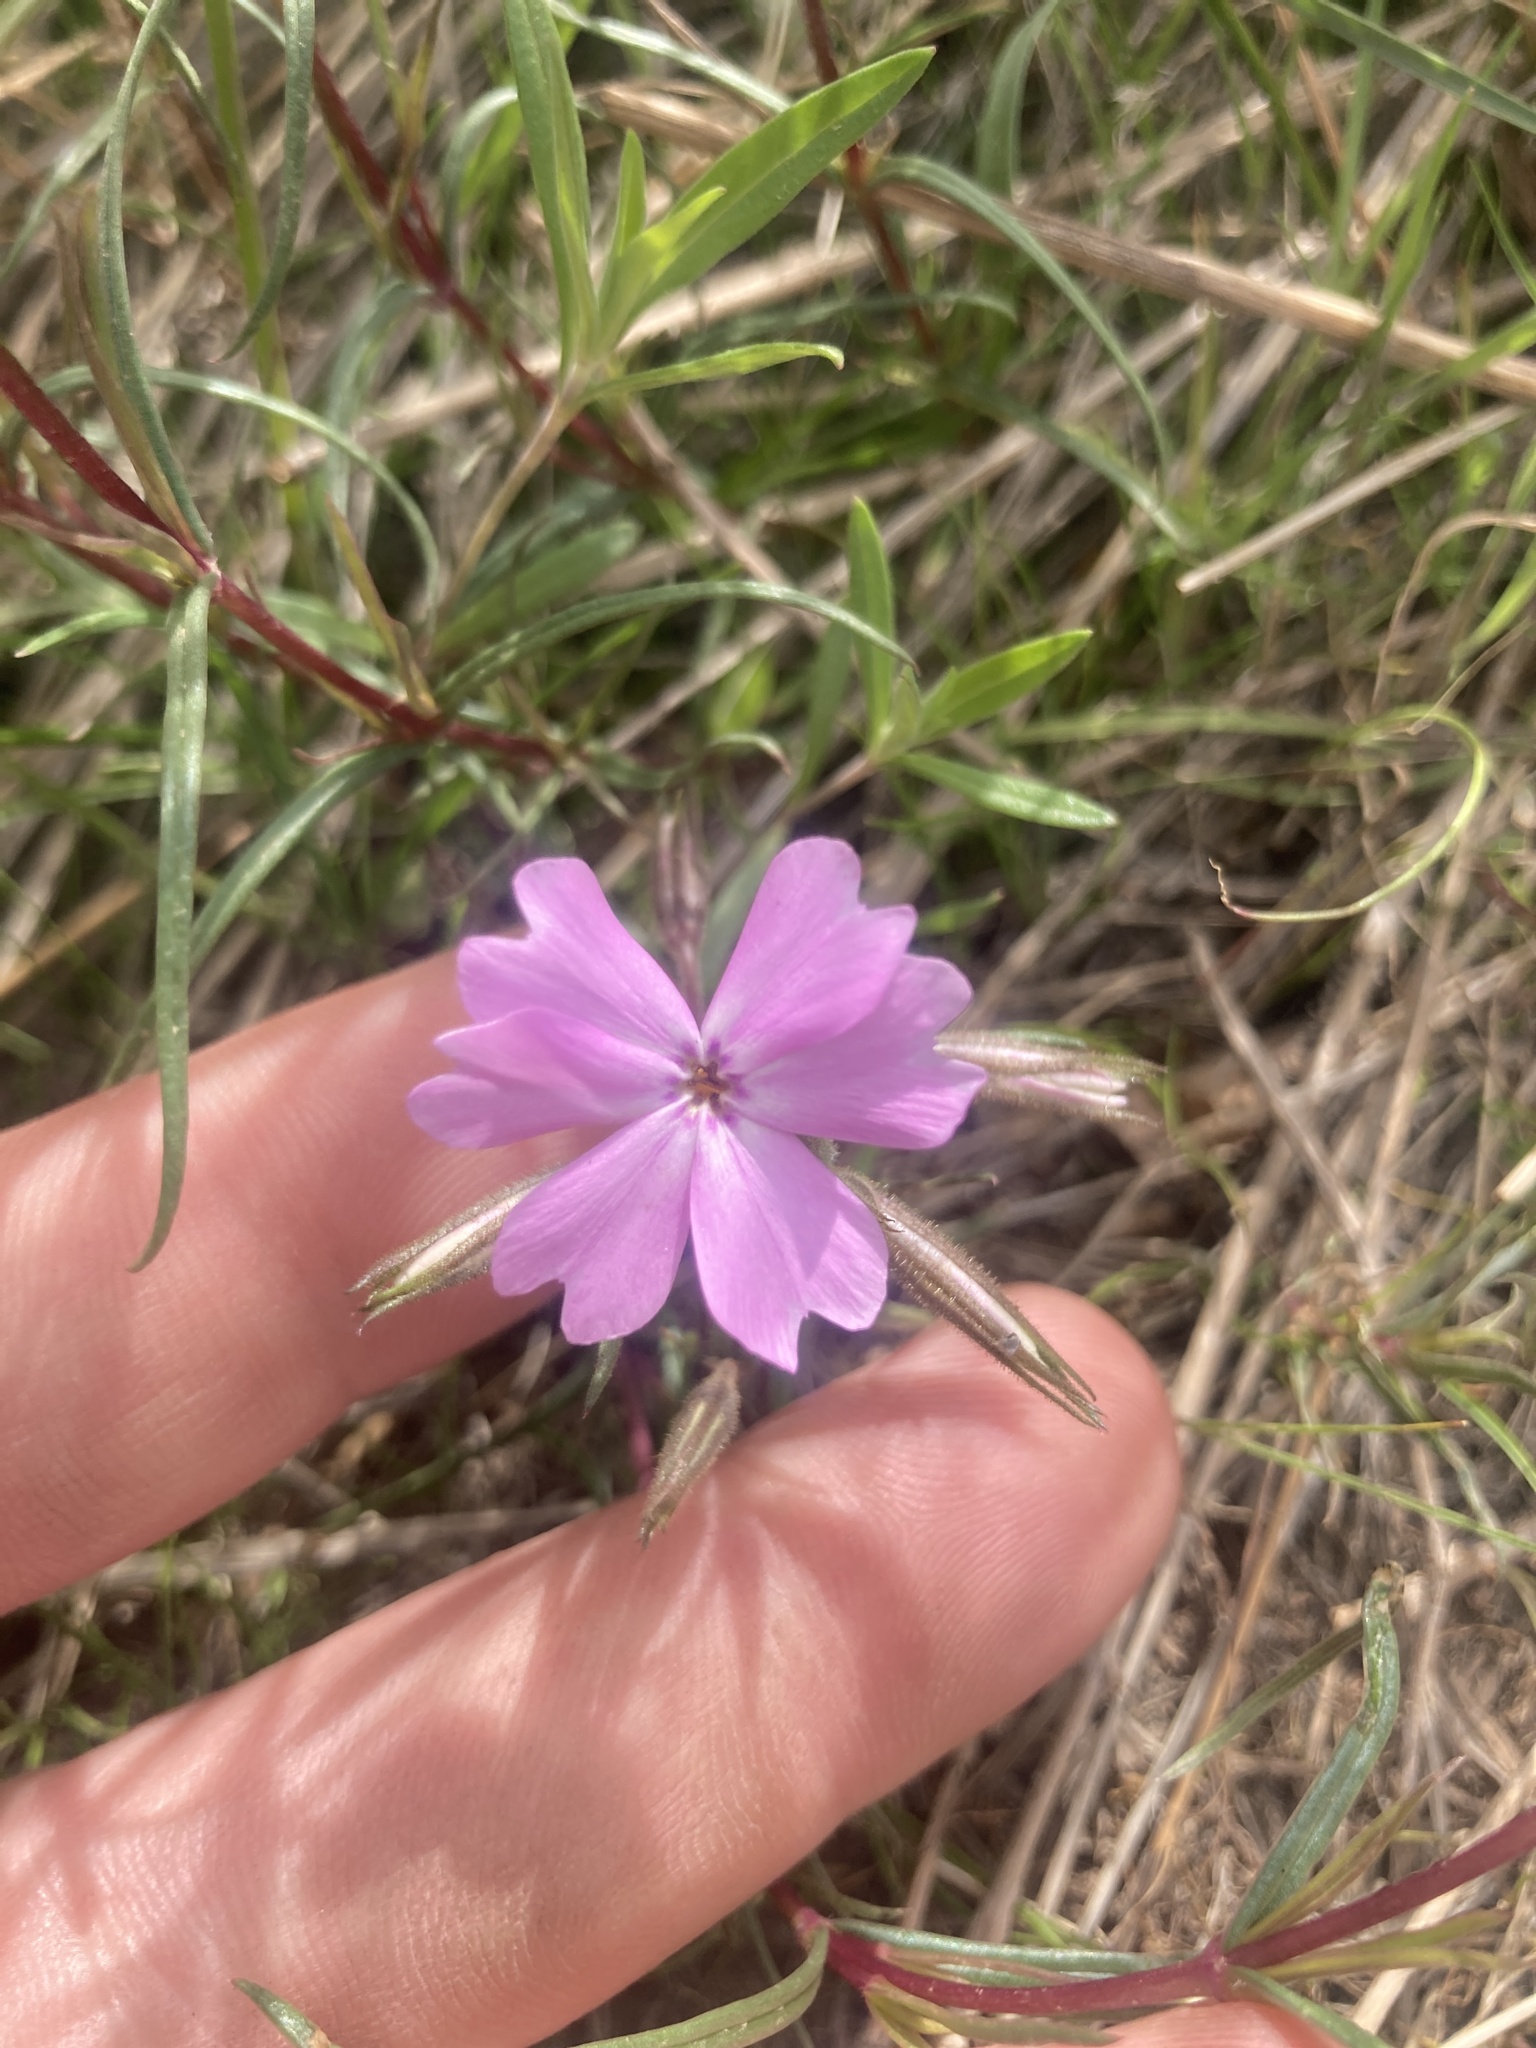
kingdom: Plantae
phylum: Tracheophyta
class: Magnoliopsida
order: Ericales
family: Polemoniaceae
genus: Phlox
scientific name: Phlox speciosa
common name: Bush phlox
